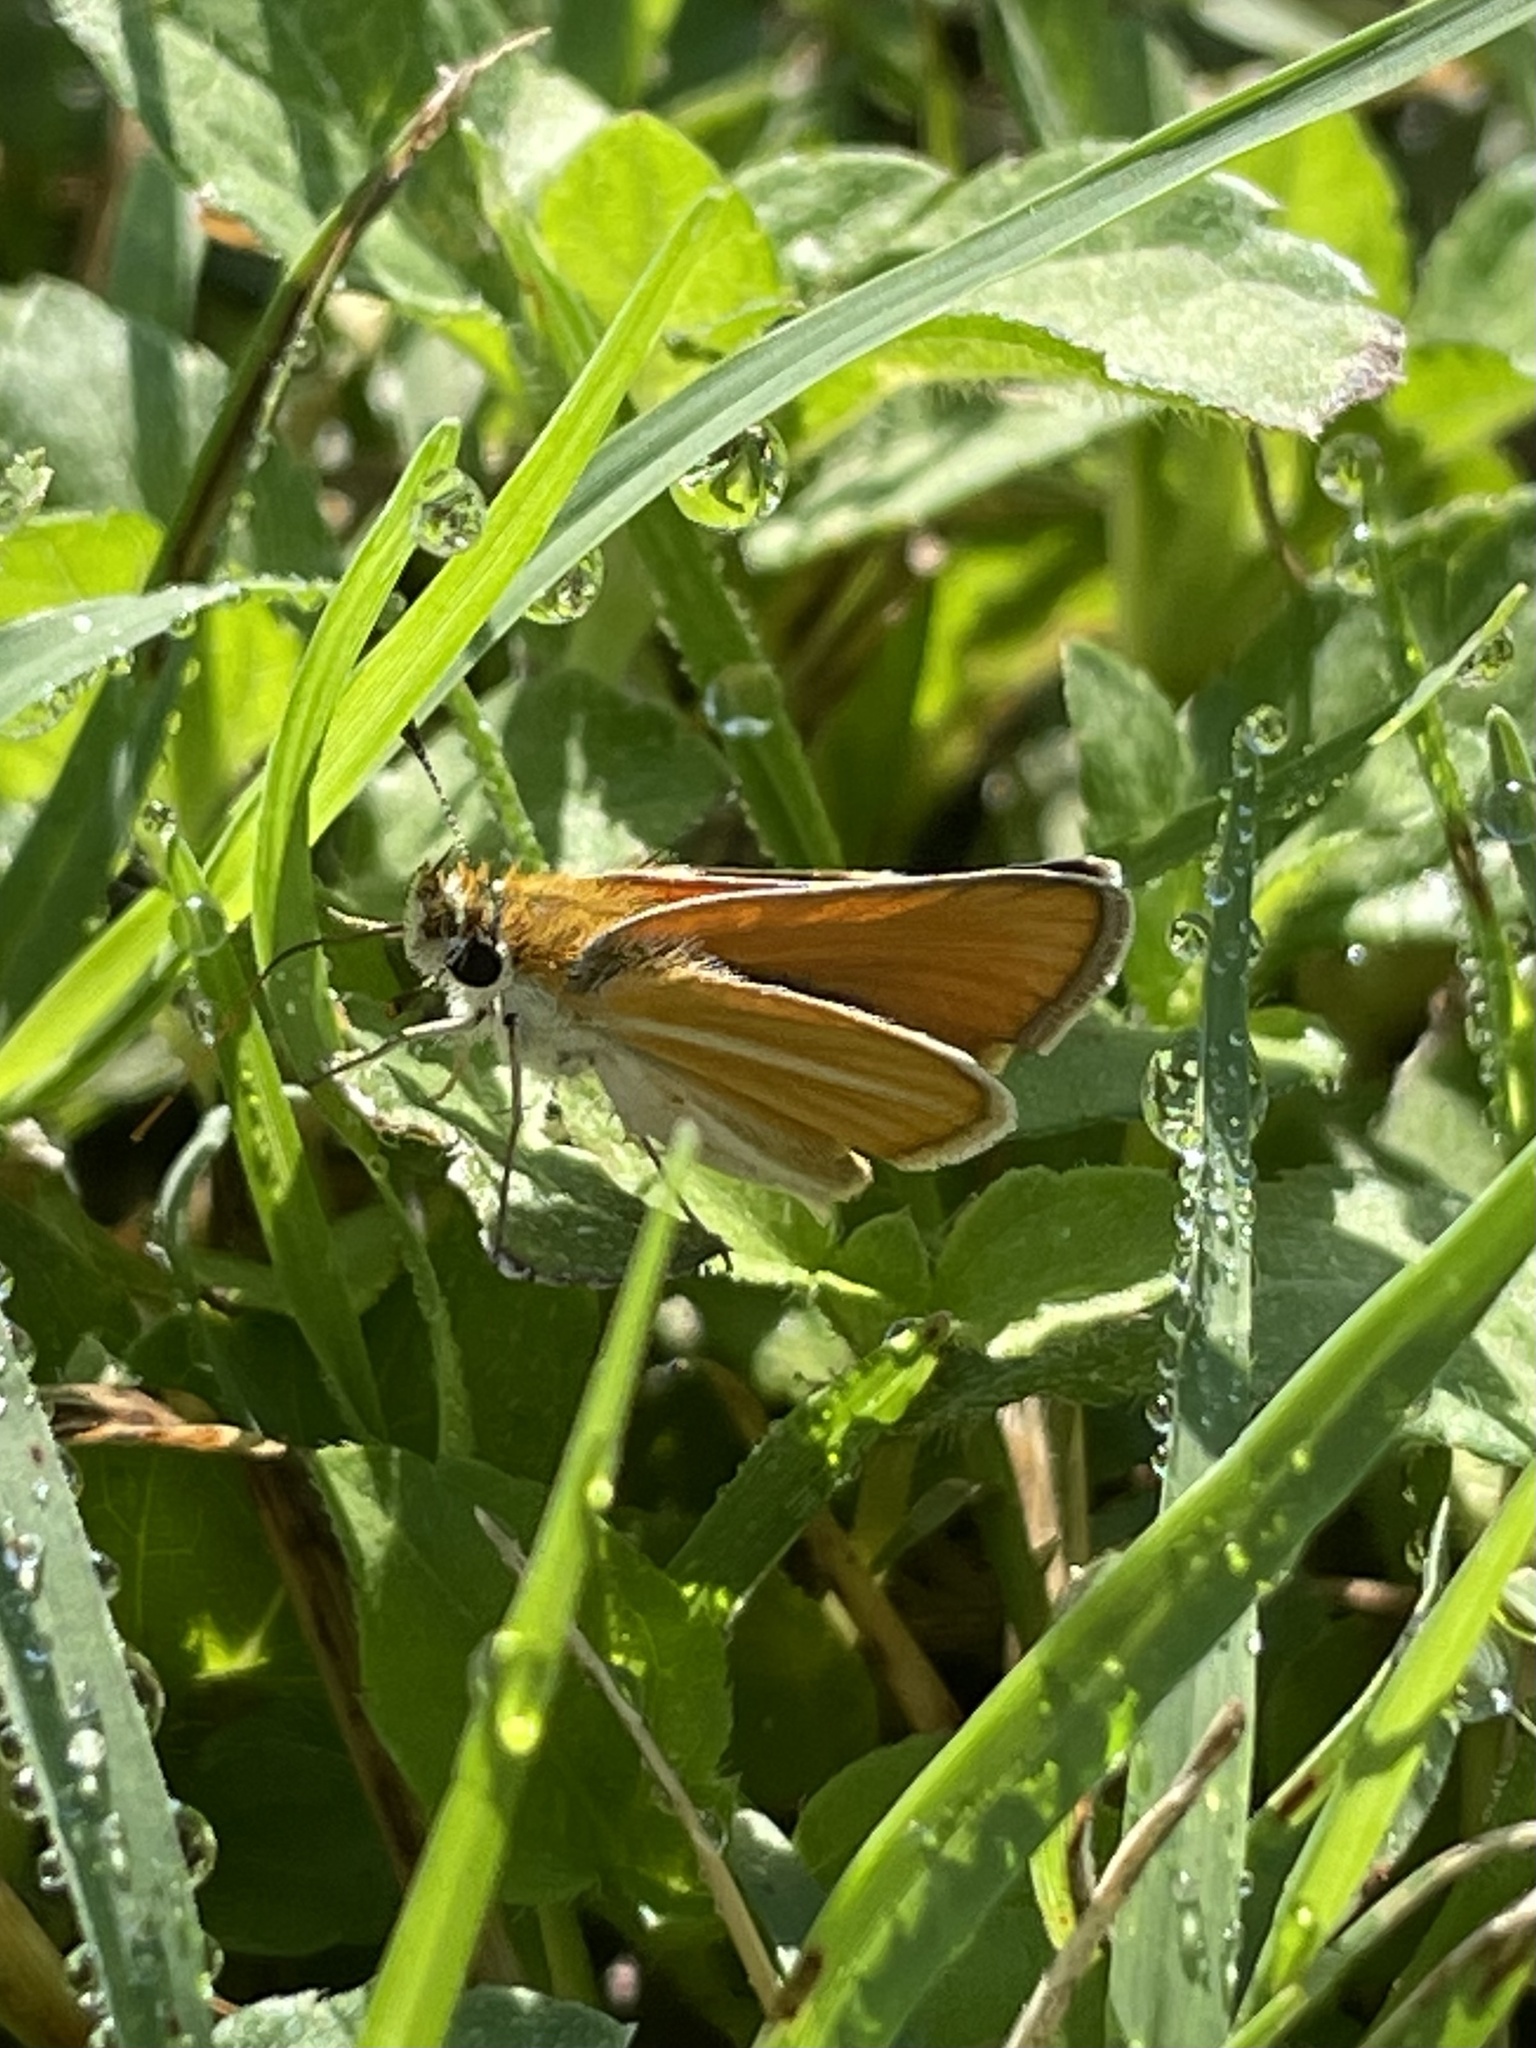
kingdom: Animalia
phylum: Arthropoda
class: Insecta
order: Lepidoptera
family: Hesperiidae
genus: Copaeodes
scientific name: Copaeodes minima
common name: Southern skipperling
